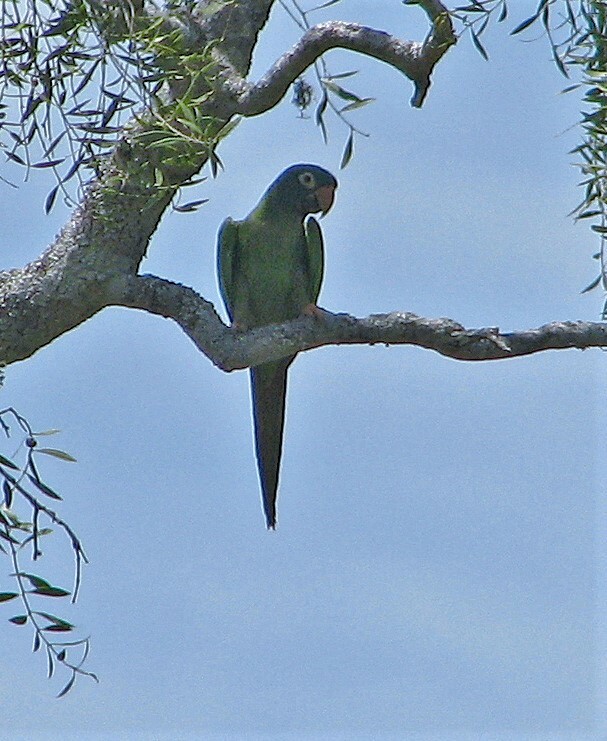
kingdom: Animalia
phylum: Chordata
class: Aves
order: Psittaciformes
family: Psittacidae
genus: Aratinga
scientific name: Aratinga acuticaudata
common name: Blue-crowned parakeet
